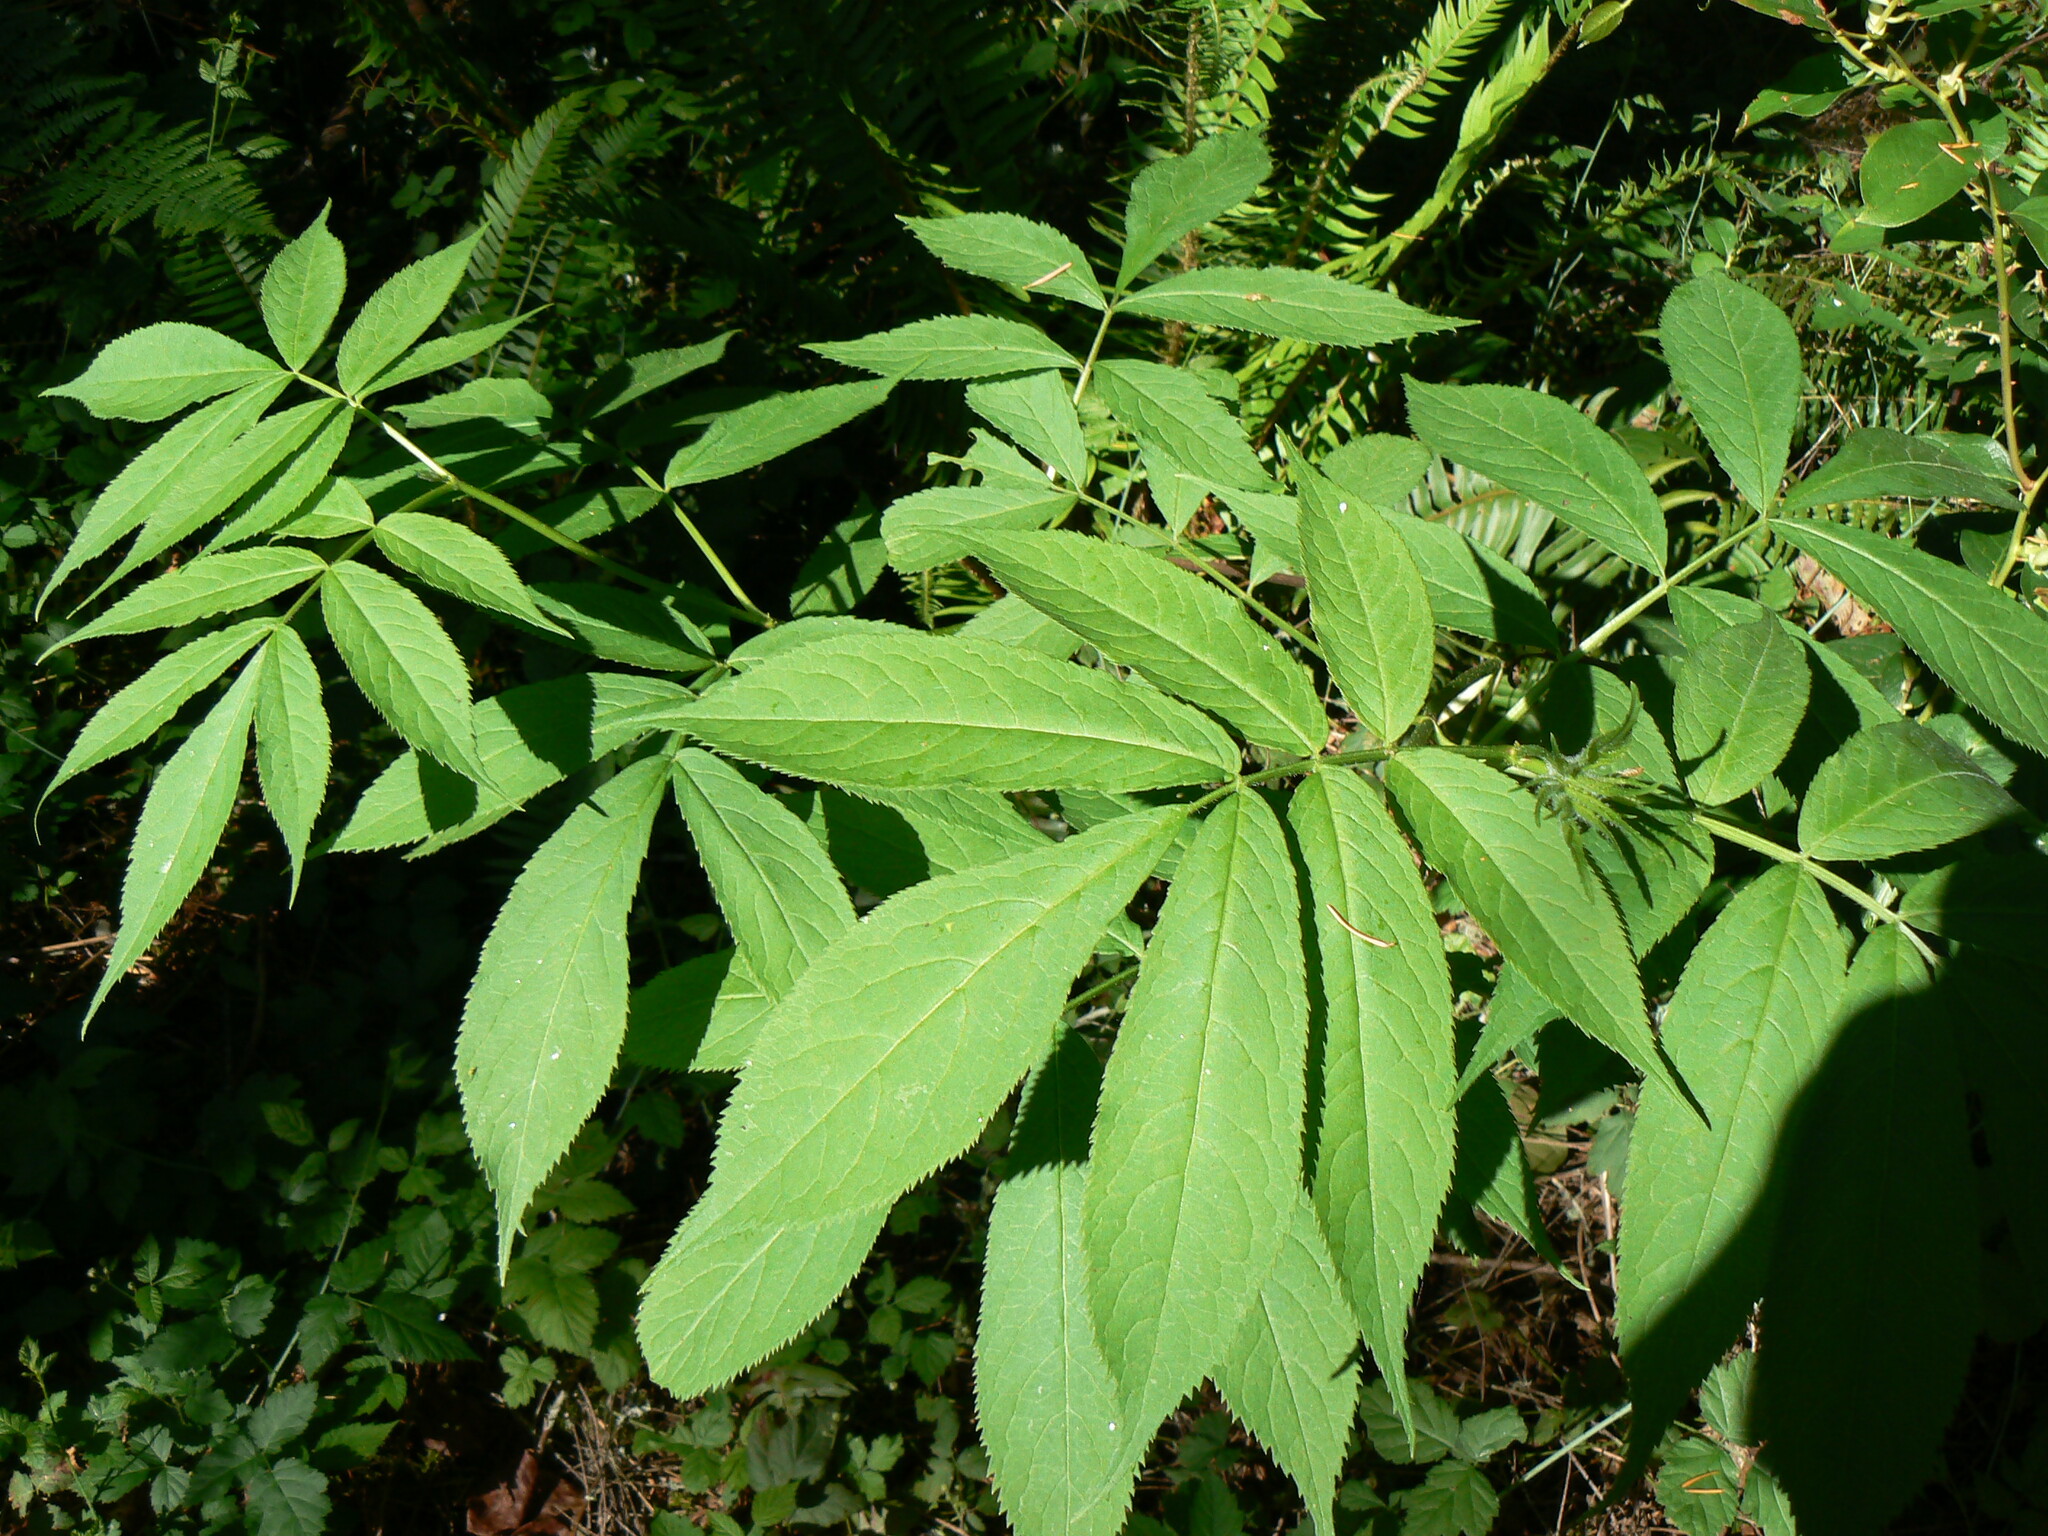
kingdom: Plantae
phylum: Tracheophyta
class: Magnoliopsida
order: Dipsacales
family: Viburnaceae
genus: Sambucus
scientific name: Sambucus racemosa
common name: Red-berried elder
